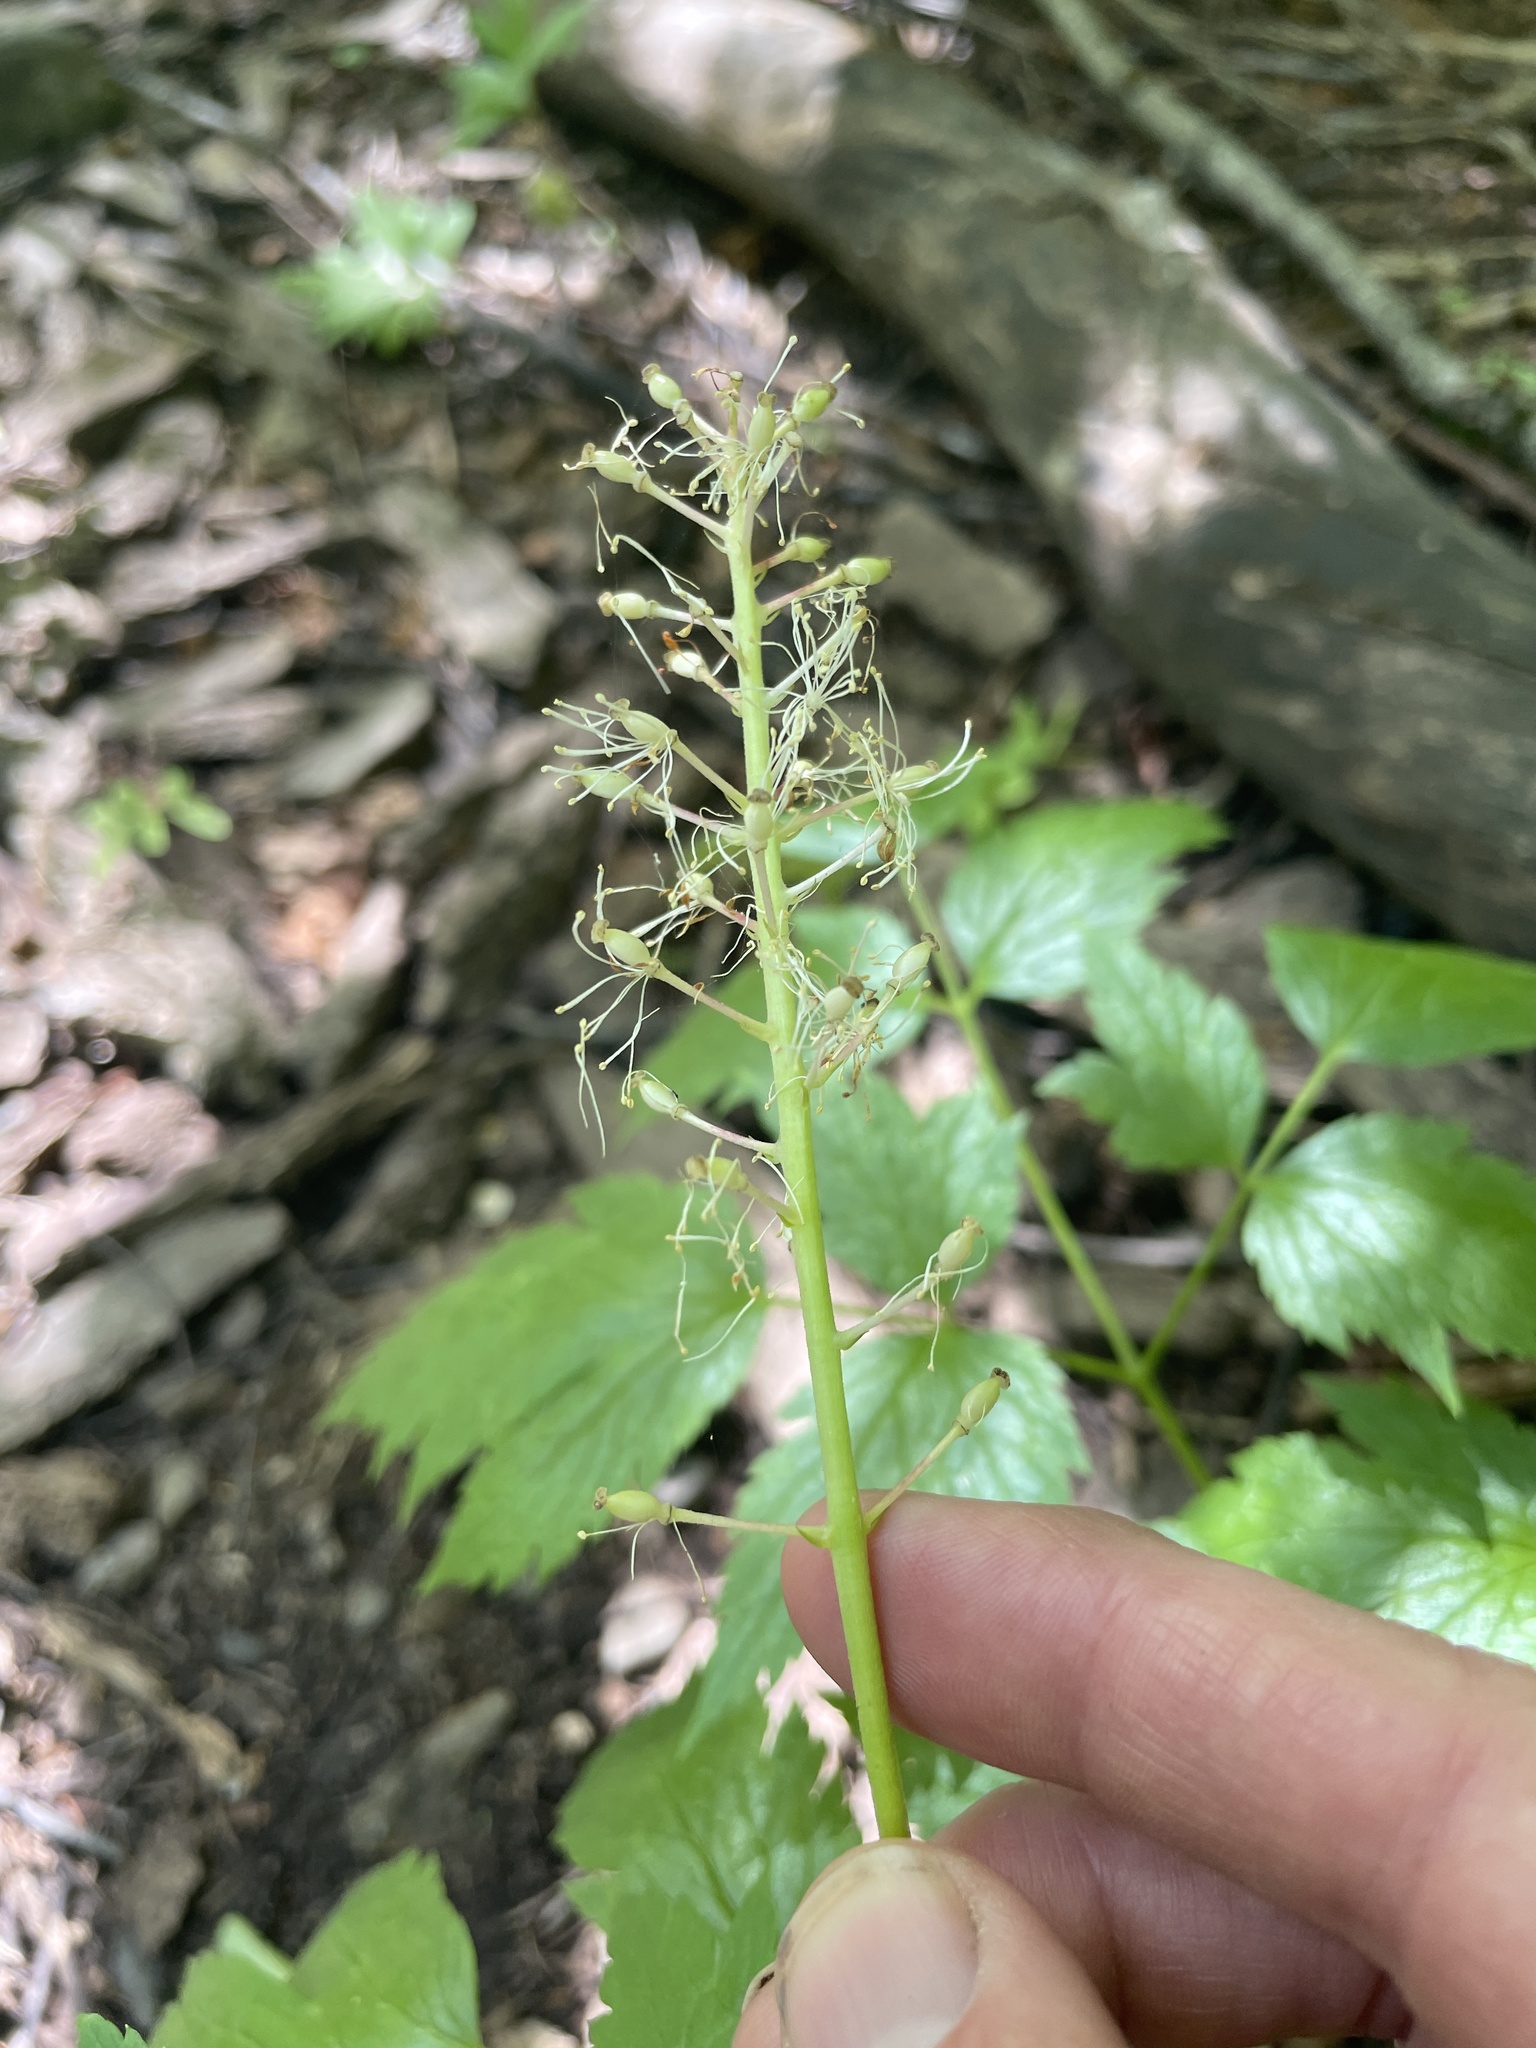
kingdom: Plantae
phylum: Tracheophyta
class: Magnoliopsida
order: Ranunculales
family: Ranunculaceae
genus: Actaea
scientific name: Actaea rubra
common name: Red baneberry
